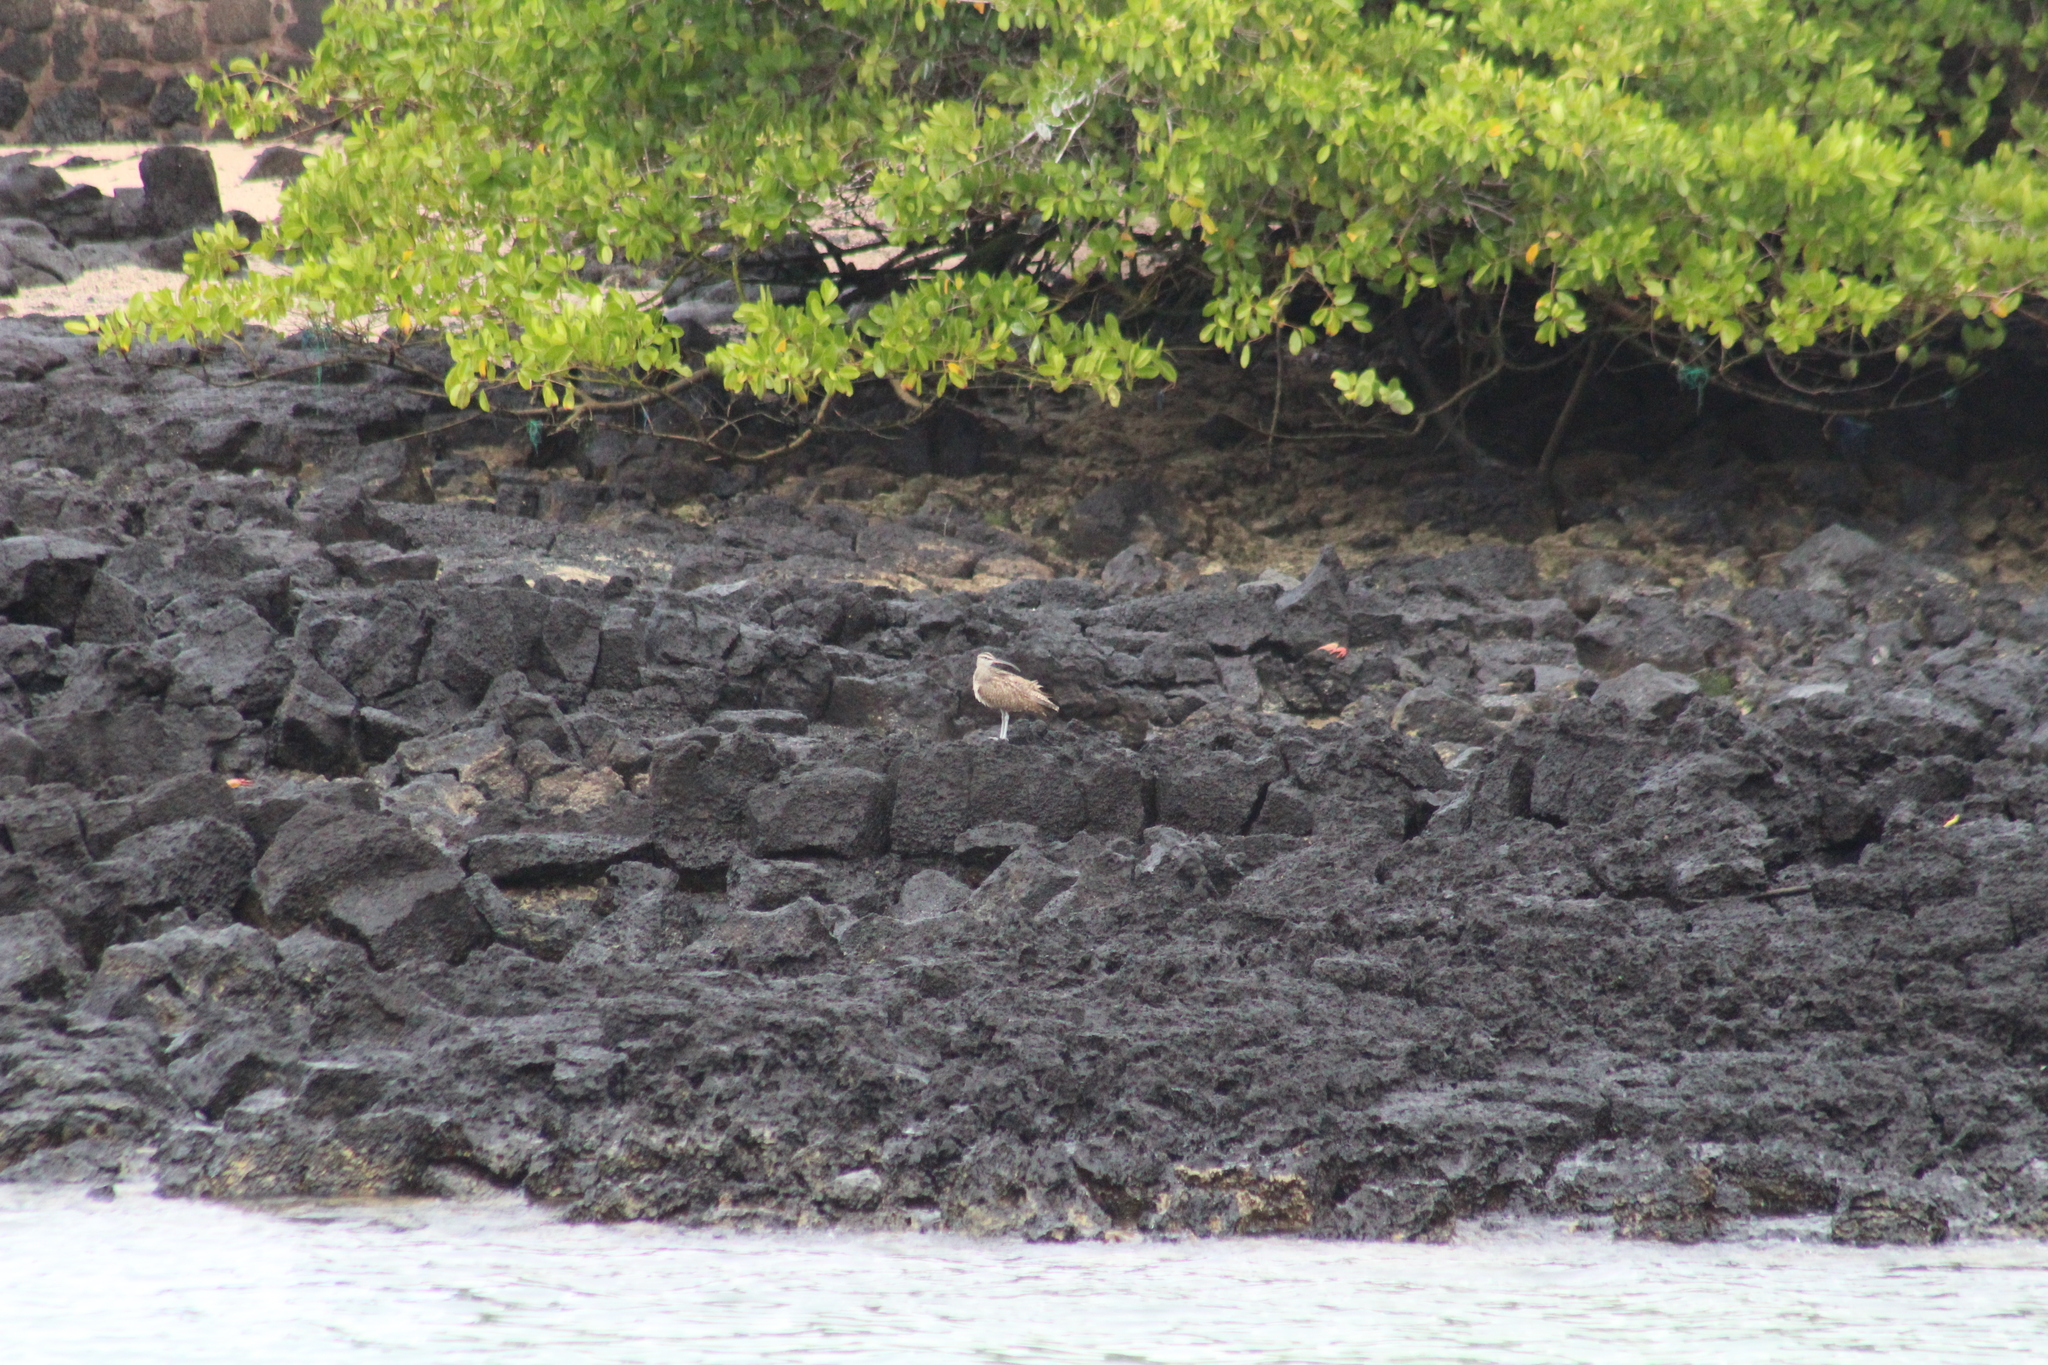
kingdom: Animalia
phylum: Chordata
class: Aves
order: Charadriiformes
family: Scolopacidae
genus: Numenius
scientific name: Numenius hudsonicus
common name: Hudsonian whimbrel
